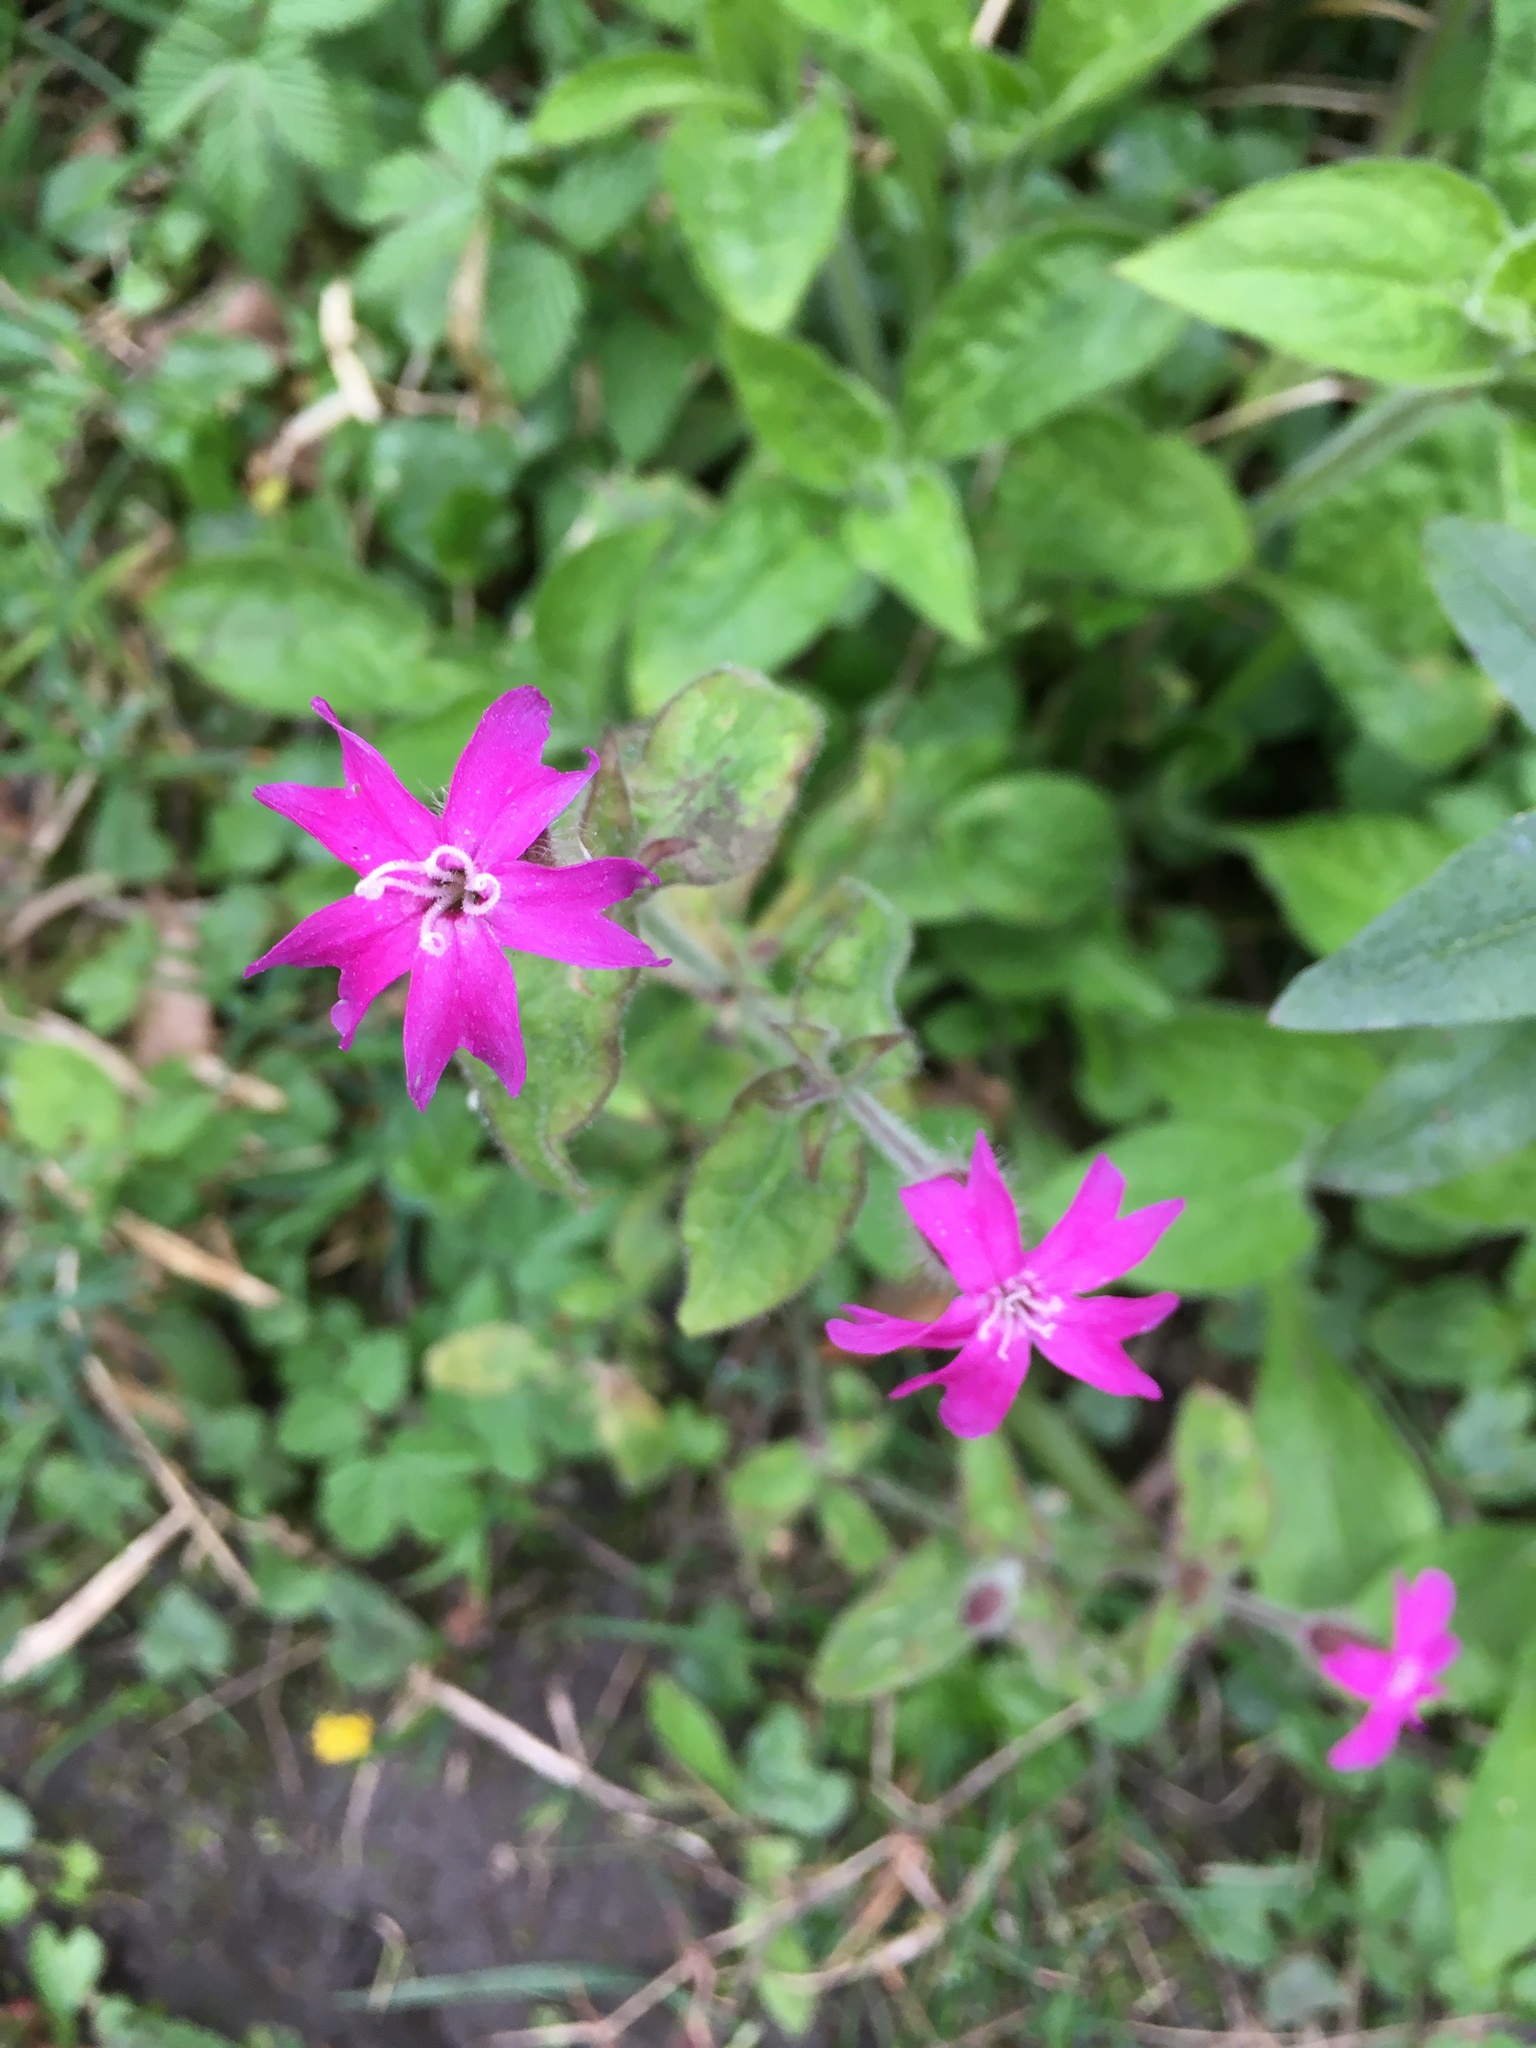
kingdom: Plantae
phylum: Tracheophyta
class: Magnoliopsida
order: Caryophyllales
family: Caryophyllaceae
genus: Silene
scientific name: Silene dioica
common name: Red campion
